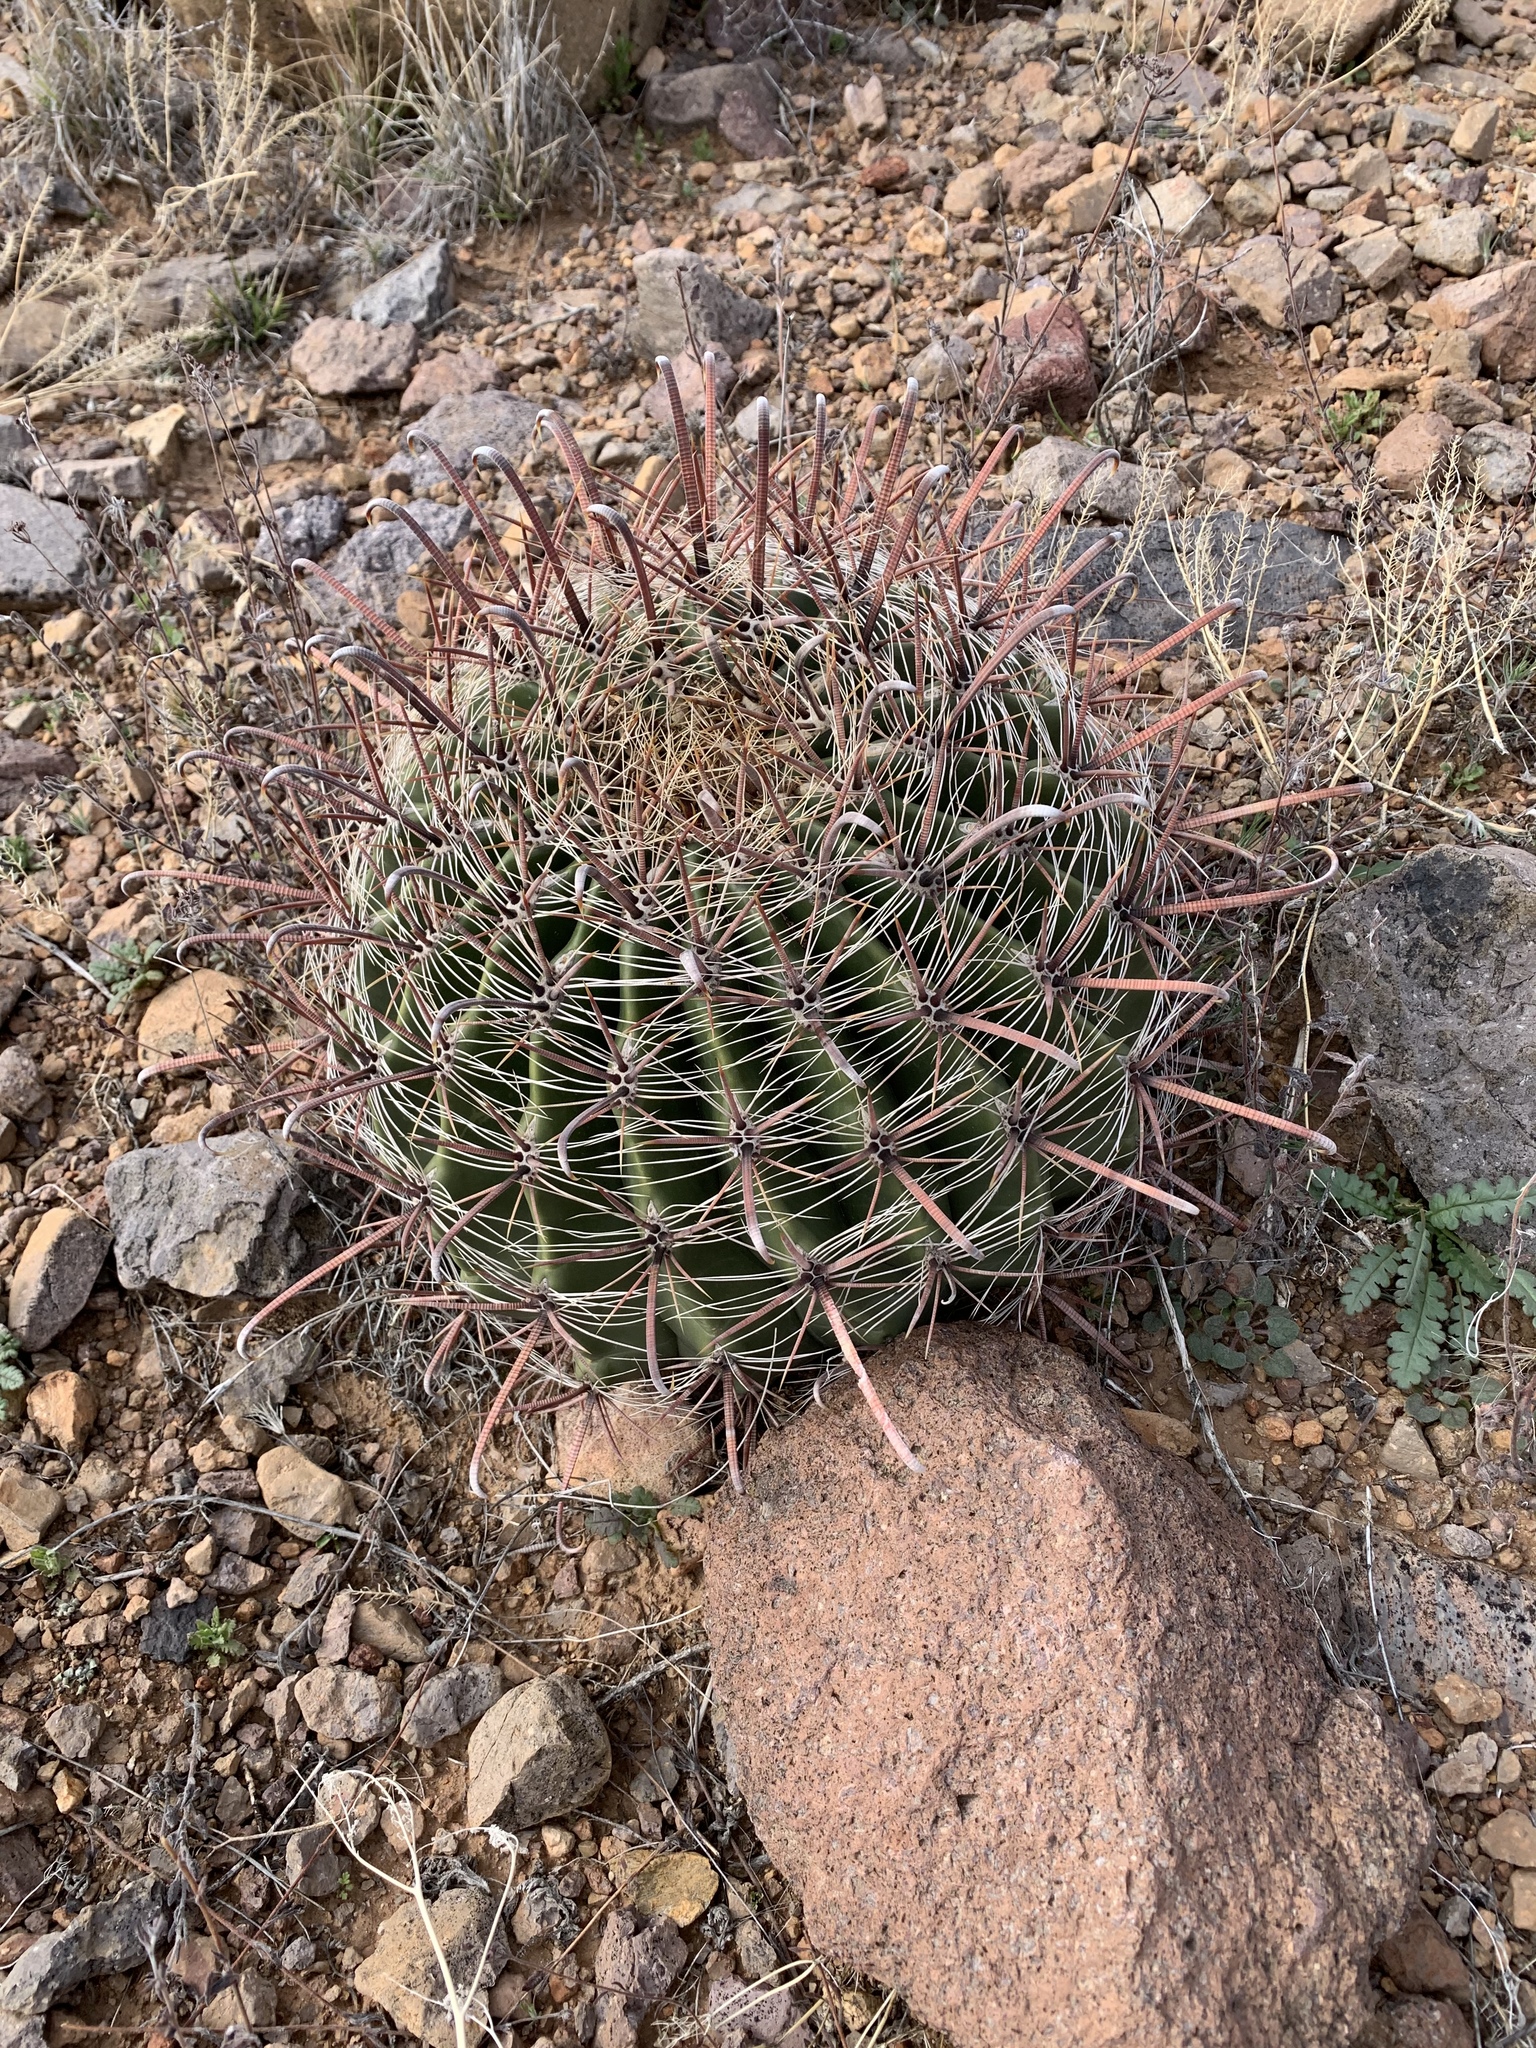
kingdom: Plantae
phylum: Tracheophyta
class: Magnoliopsida
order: Caryophyllales
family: Cactaceae
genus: Ferocactus
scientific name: Ferocactus wislizeni
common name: Candy barrel cactus
